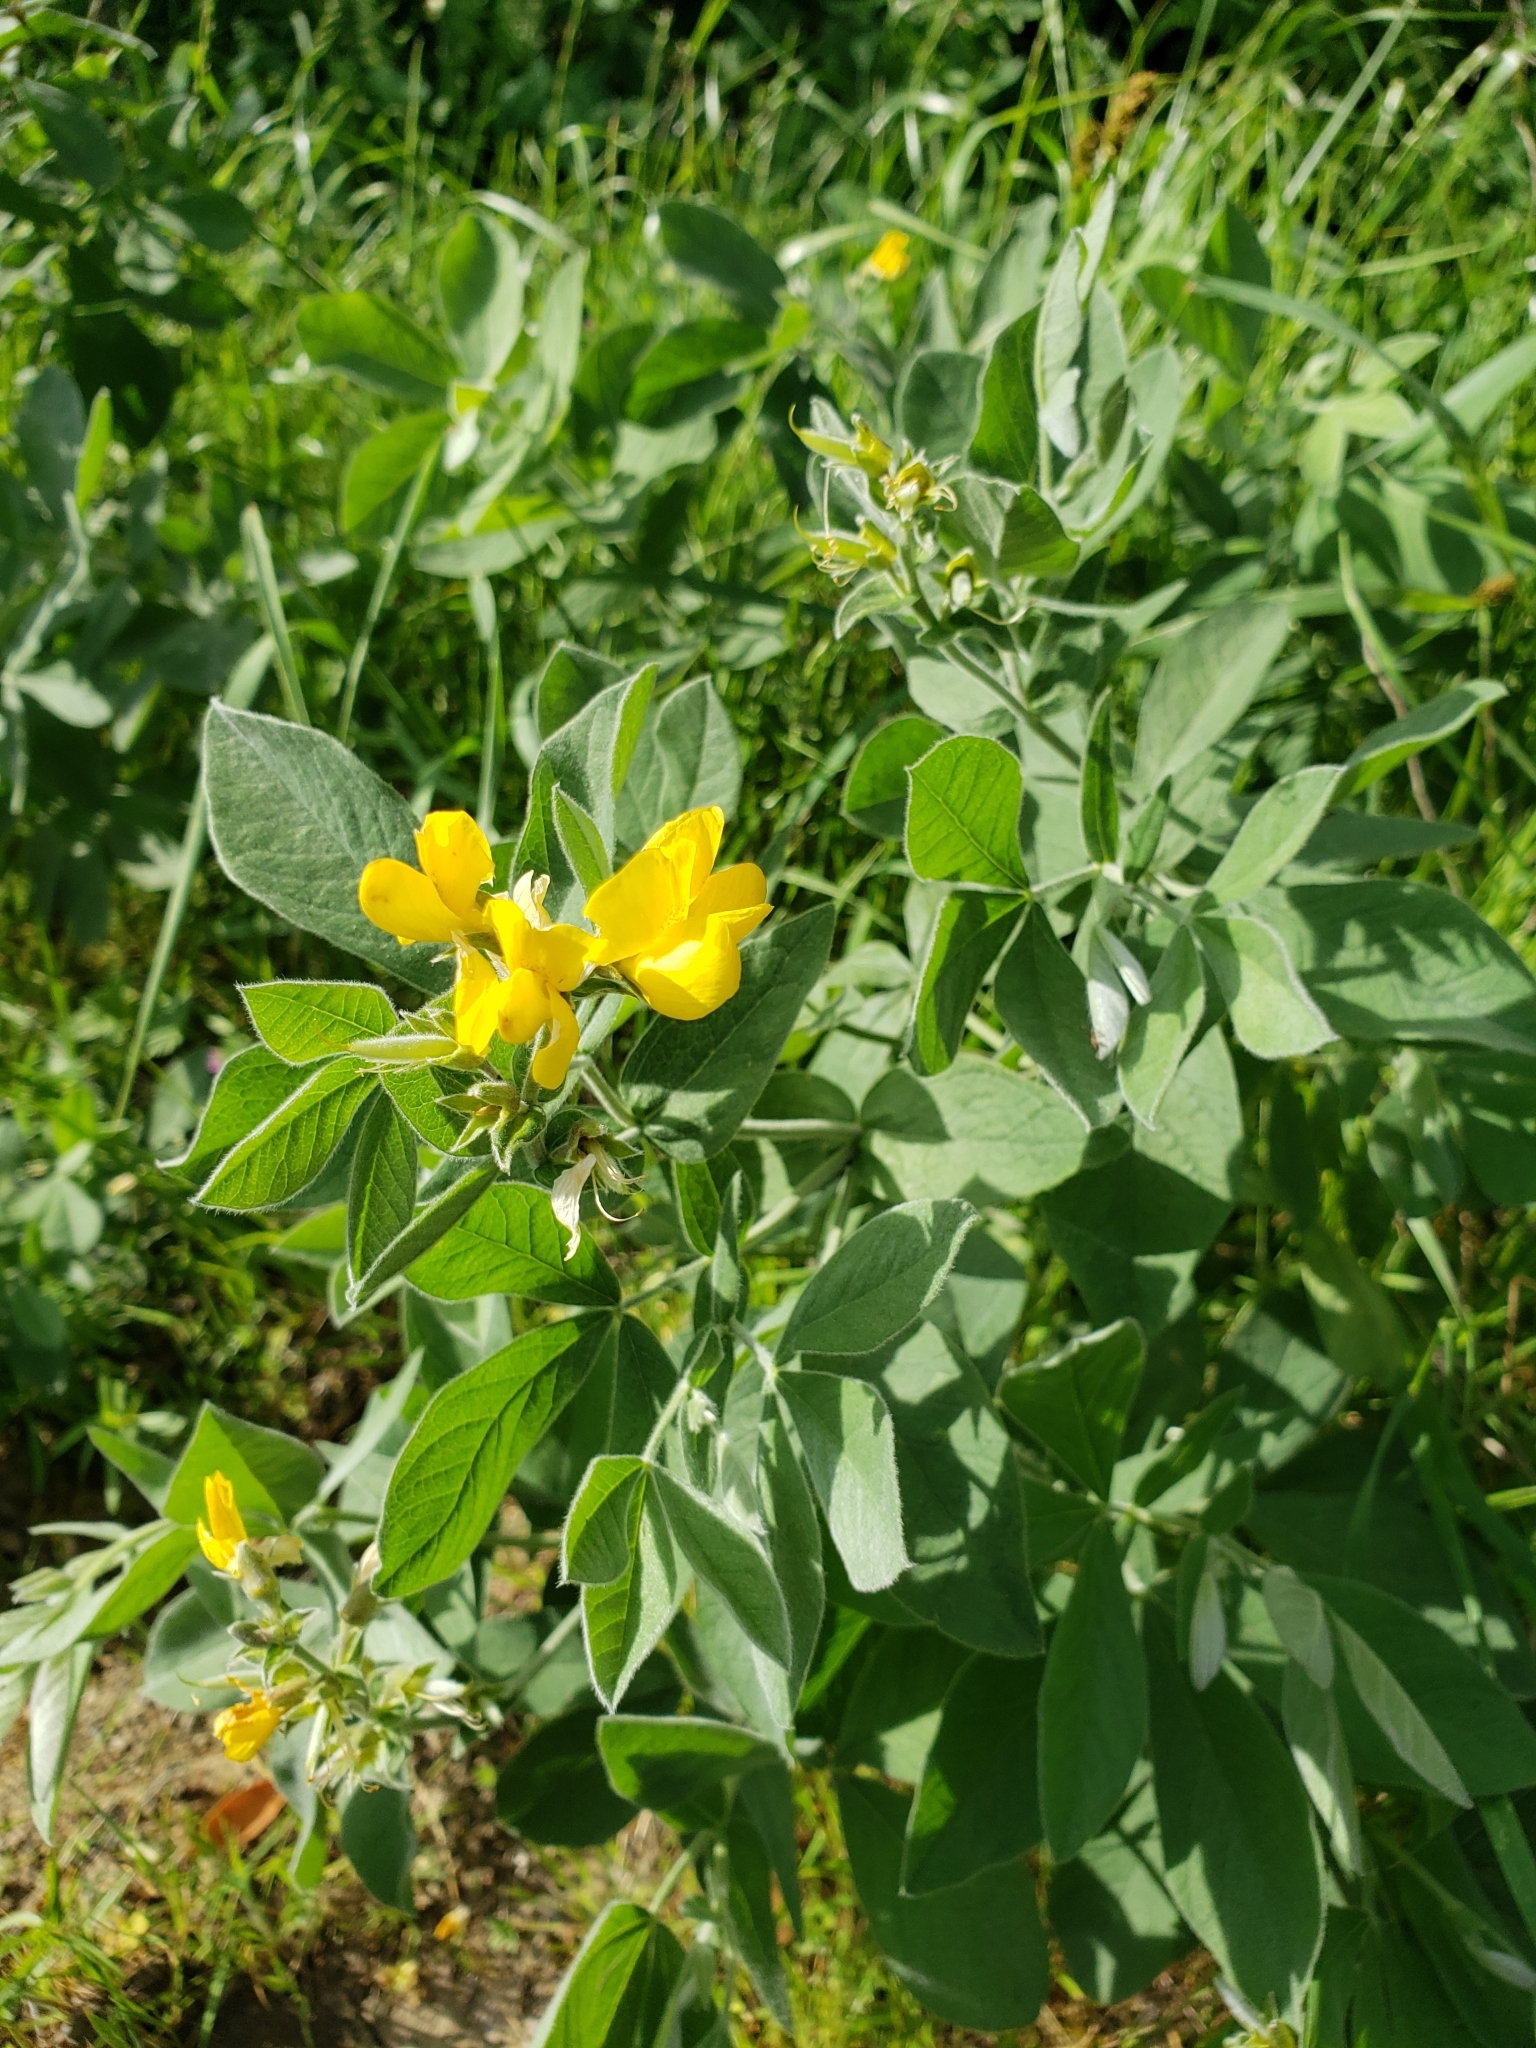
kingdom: Plantae
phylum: Tracheophyta
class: Magnoliopsida
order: Fabales
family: Fabaceae
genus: Thermopsis
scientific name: Thermopsis californica
